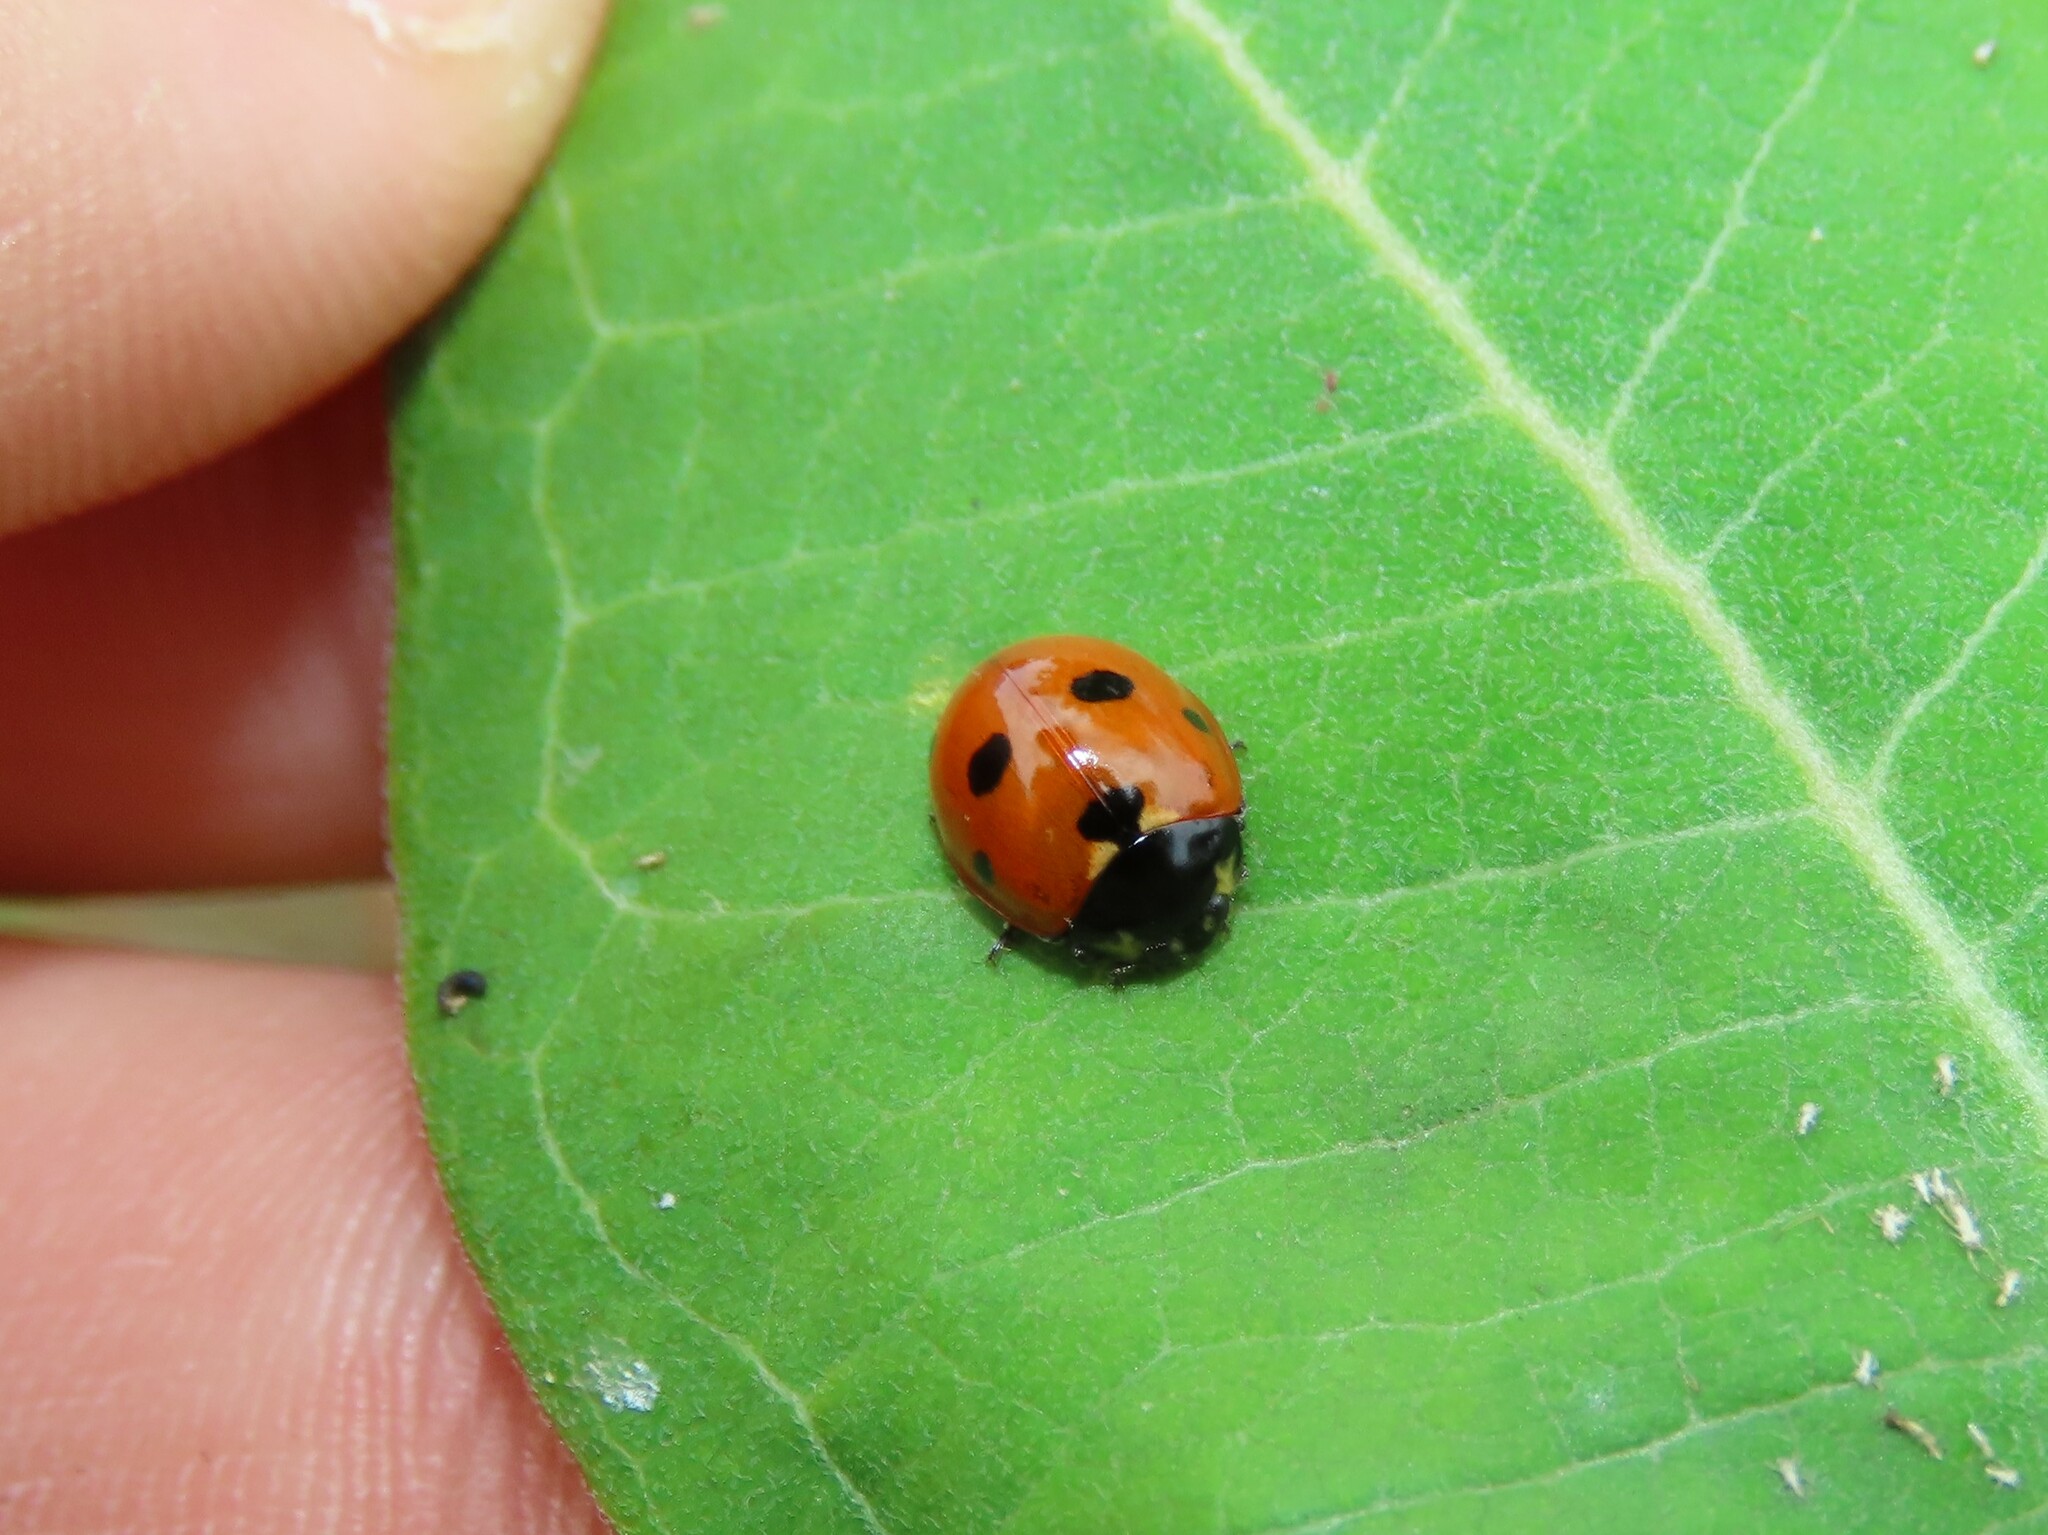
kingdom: Animalia
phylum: Arthropoda
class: Insecta
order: Coleoptera
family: Coccinellidae
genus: Coccinella
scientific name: Coccinella septempunctata
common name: Sevenspotted lady beetle
